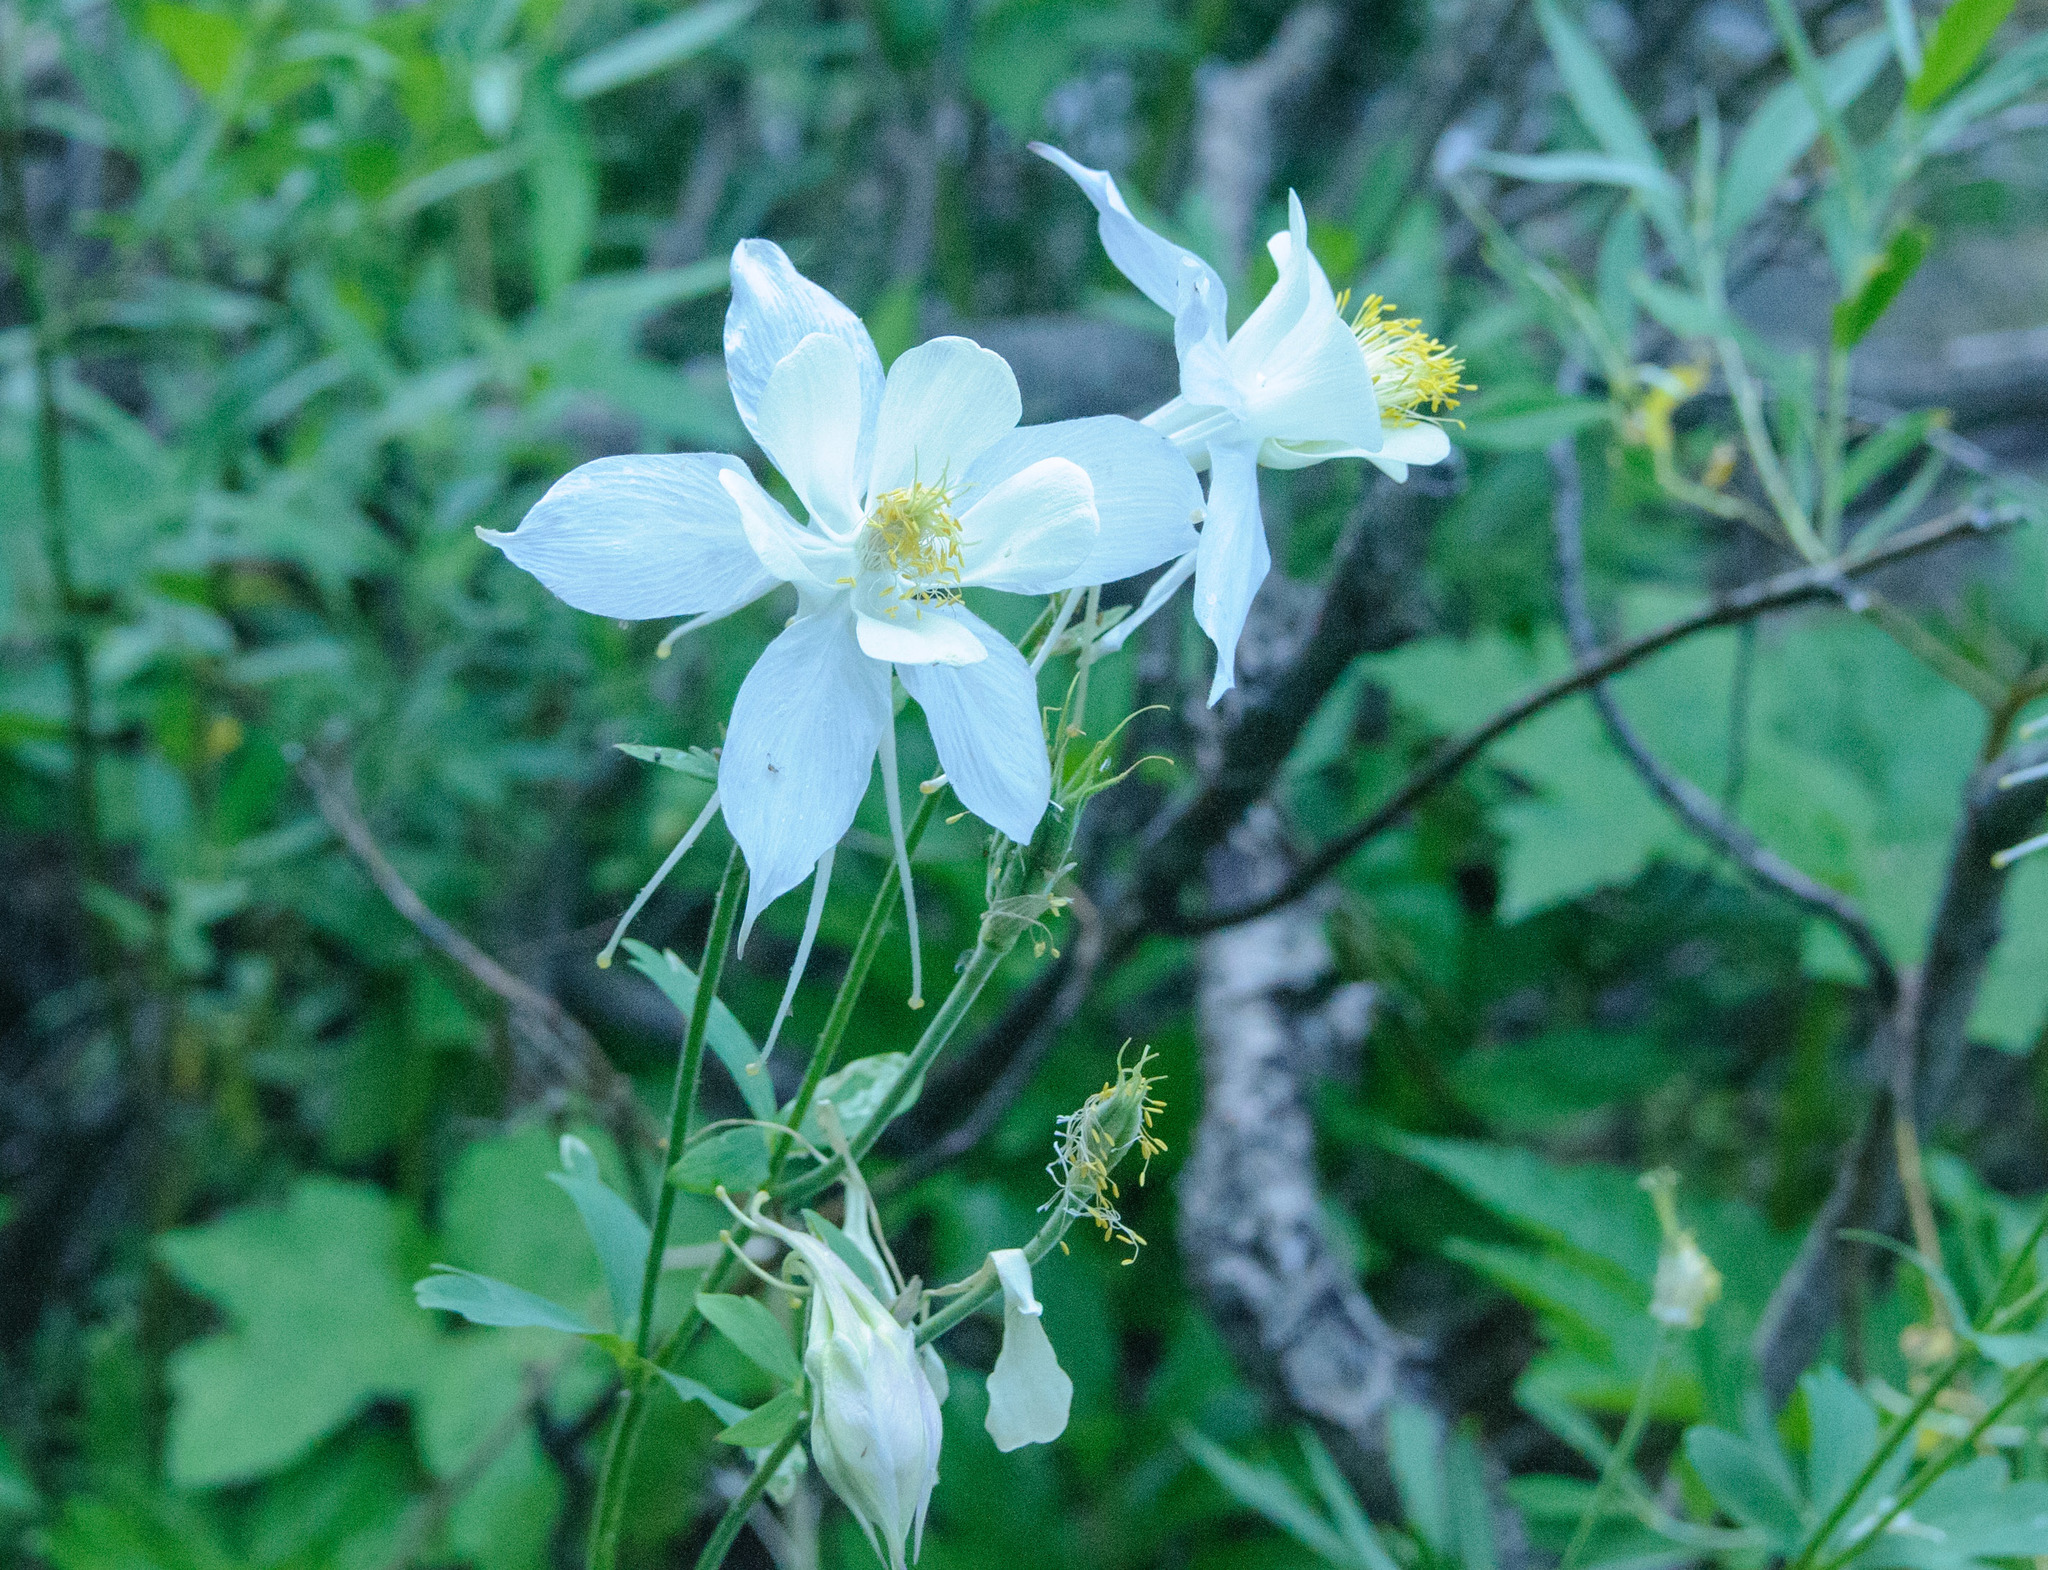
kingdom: Plantae
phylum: Tracheophyta
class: Magnoliopsida
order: Ranunculales
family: Ranunculaceae
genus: Aquilegia
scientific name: Aquilegia coerulea
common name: Rocky mountain columbine
